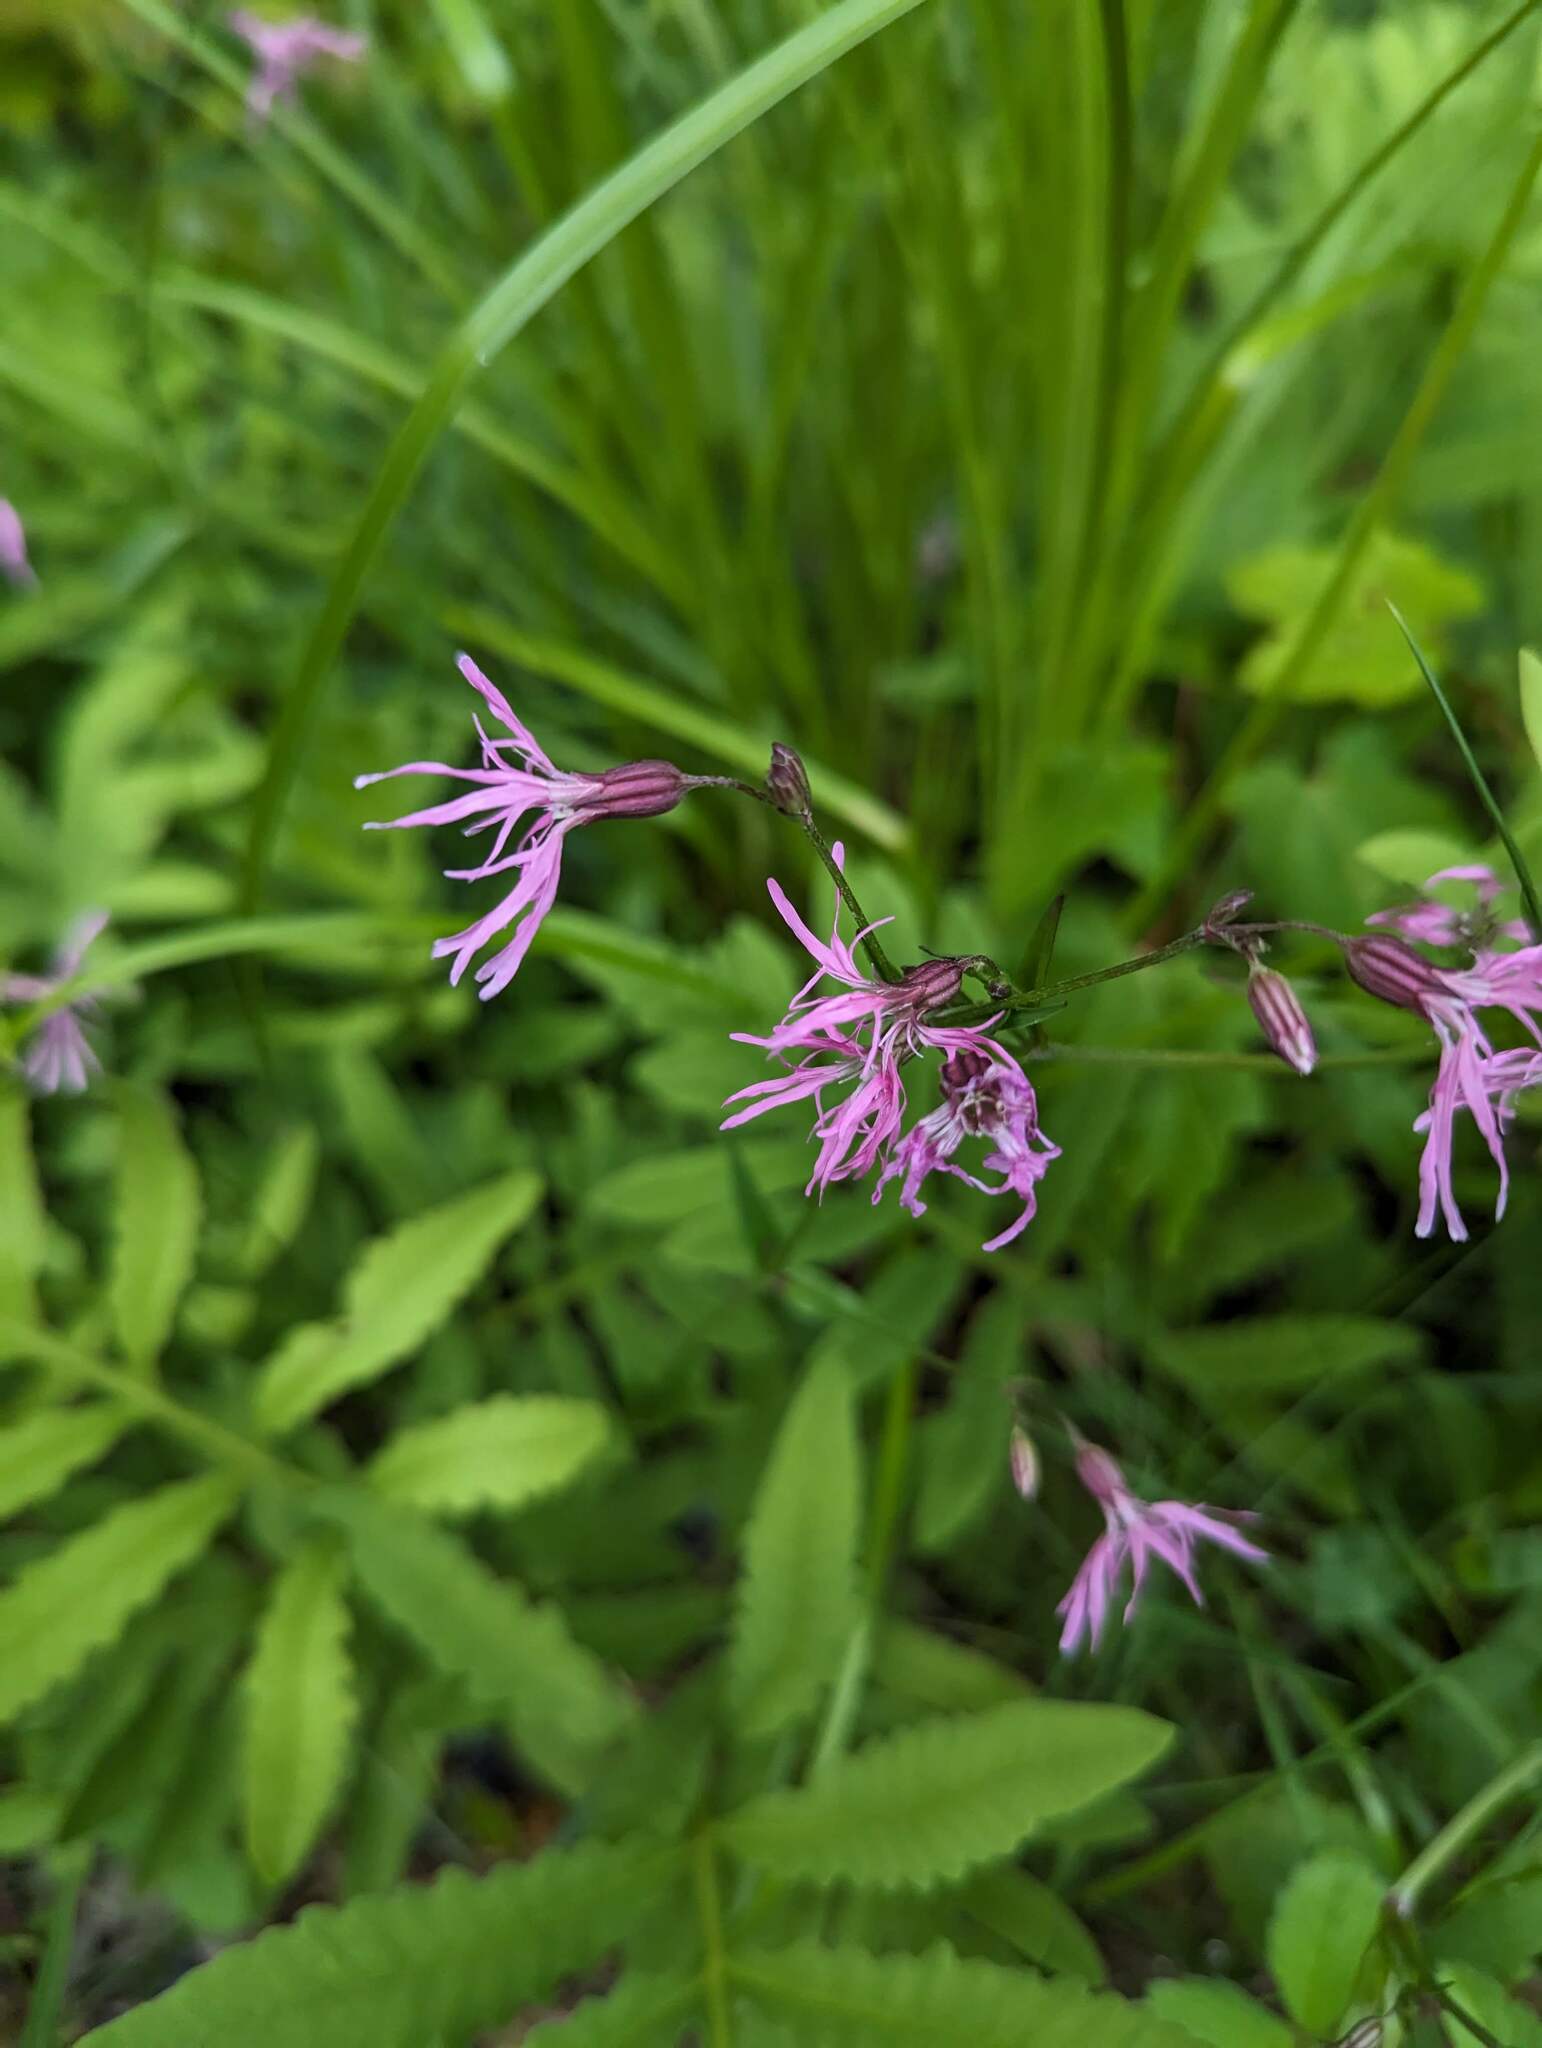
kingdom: Plantae
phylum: Tracheophyta
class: Magnoliopsida
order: Caryophyllales
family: Caryophyllaceae
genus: Silene
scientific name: Silene flos-cuculi
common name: Ragged-robin
